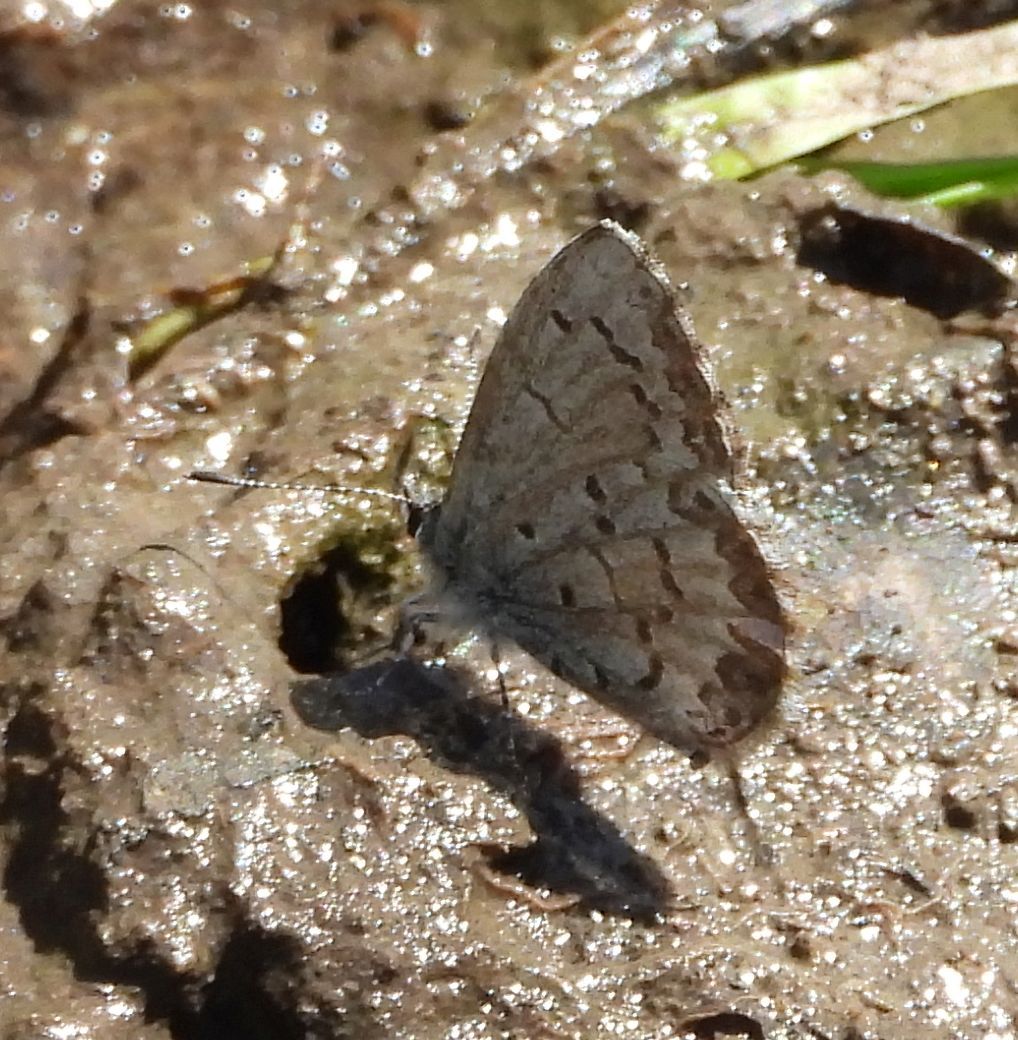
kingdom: Animalia
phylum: Arthropoda
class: Insecta
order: Lepidoptera
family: Lycaenidae
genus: Celastrina
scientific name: Celastrina lucia
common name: Lucia azure
